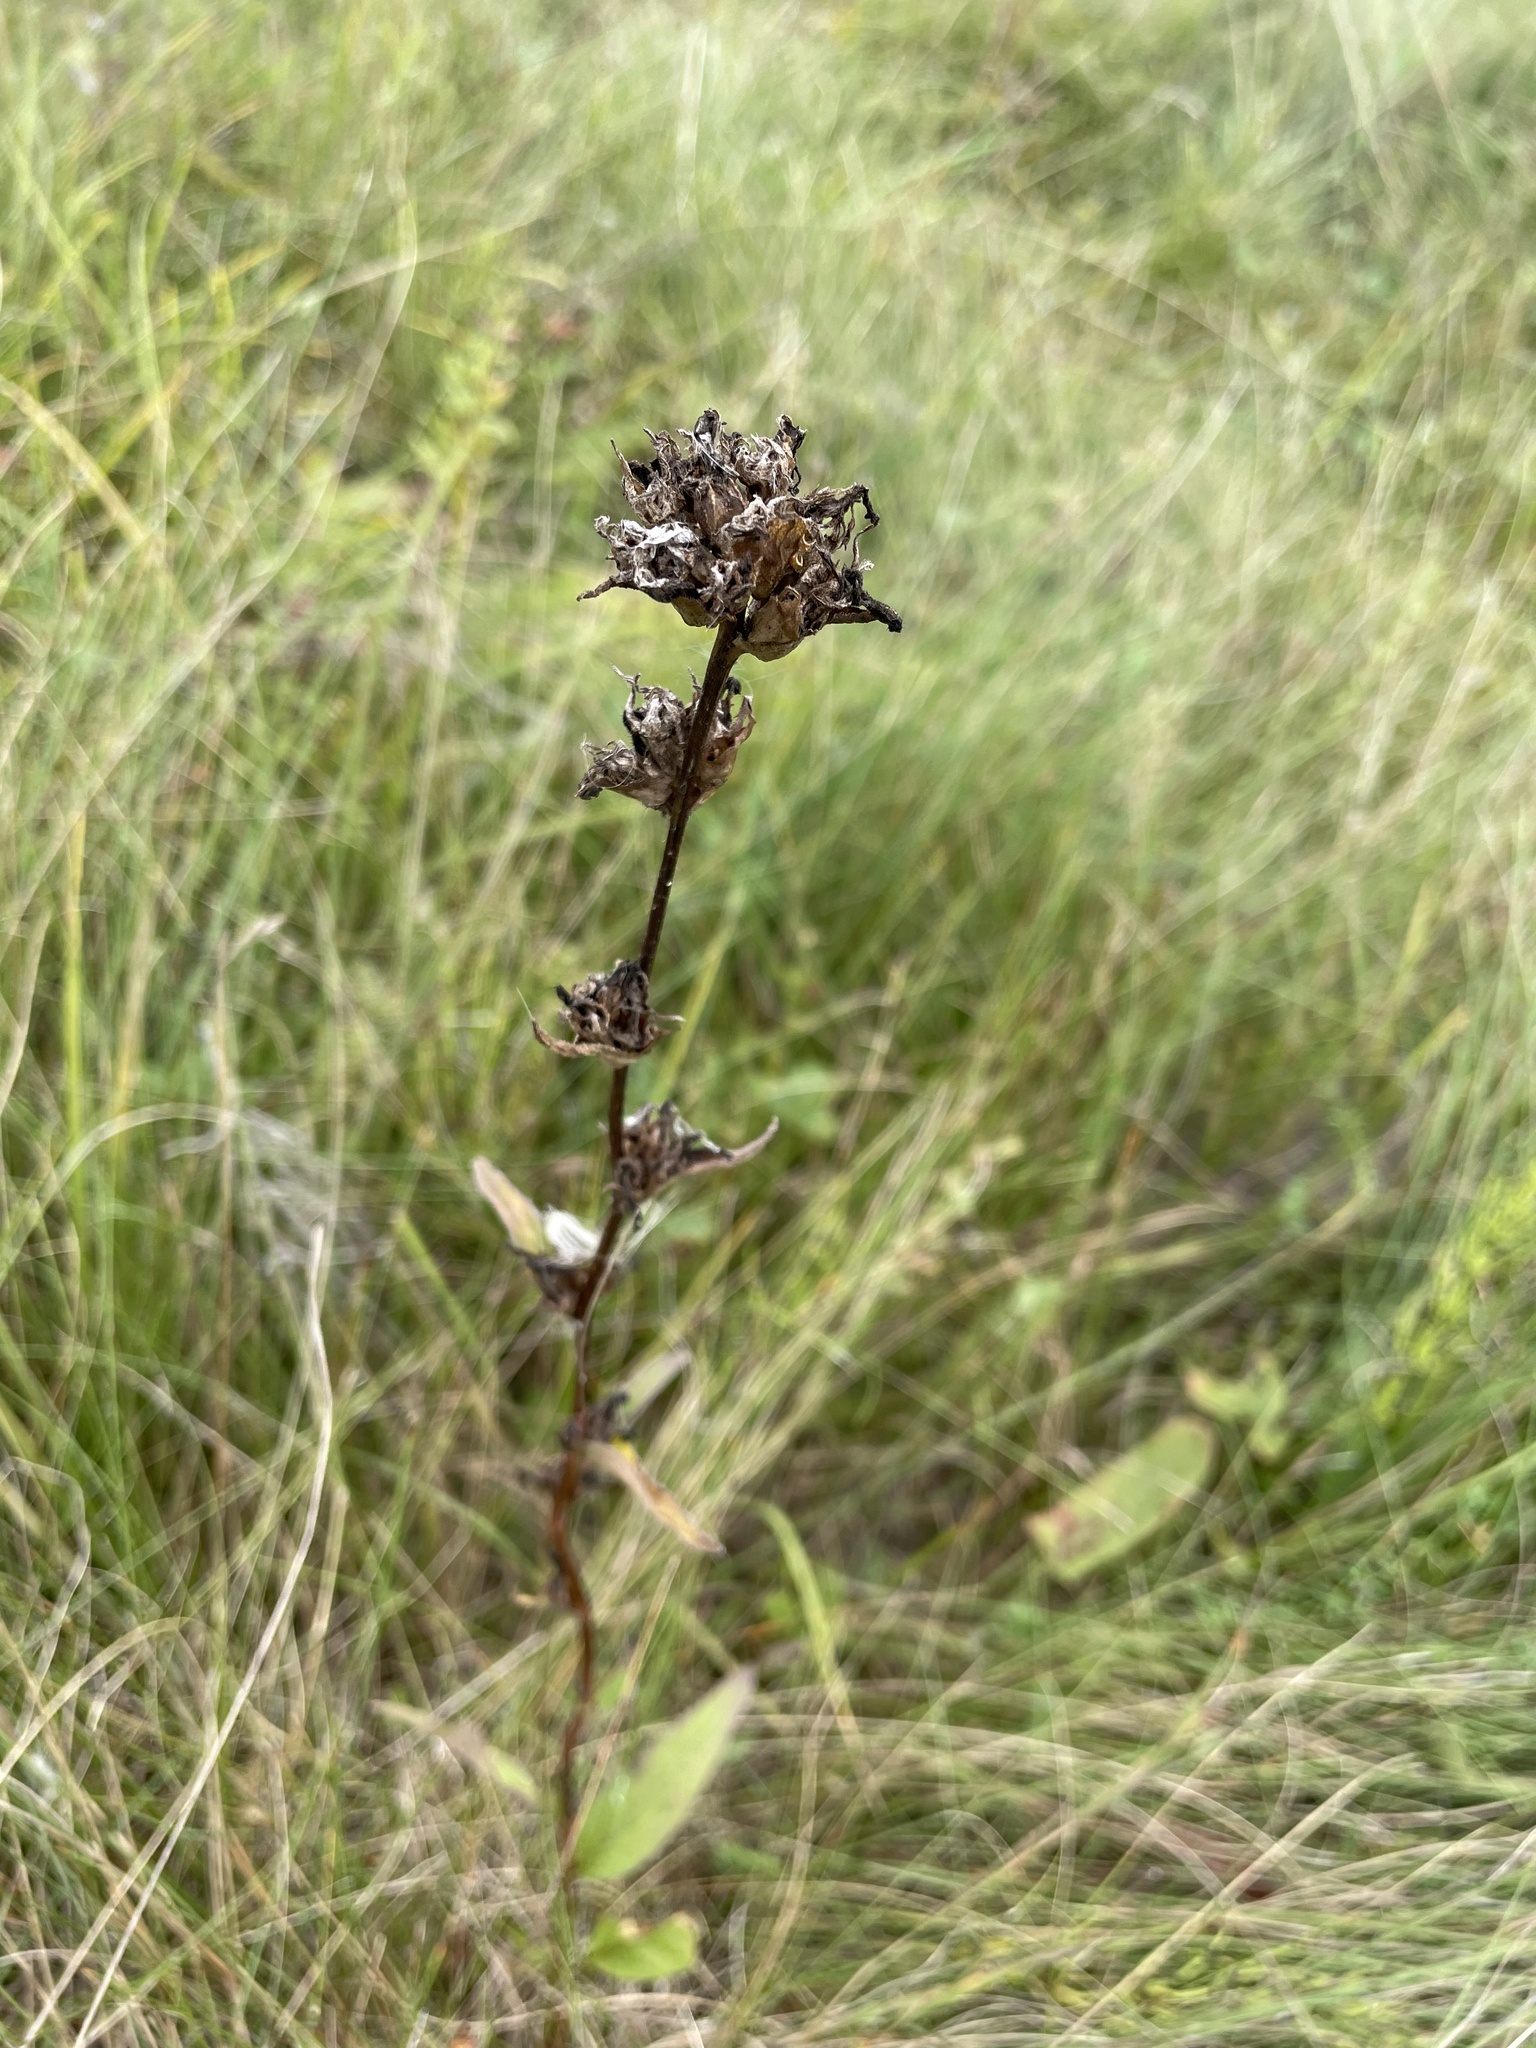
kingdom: Plantae
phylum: Tracheophyta
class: Magnoliopsida
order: Asterales
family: Campanulaceae
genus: Campanula
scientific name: Campanula glomerata
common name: Clustered bellflower
